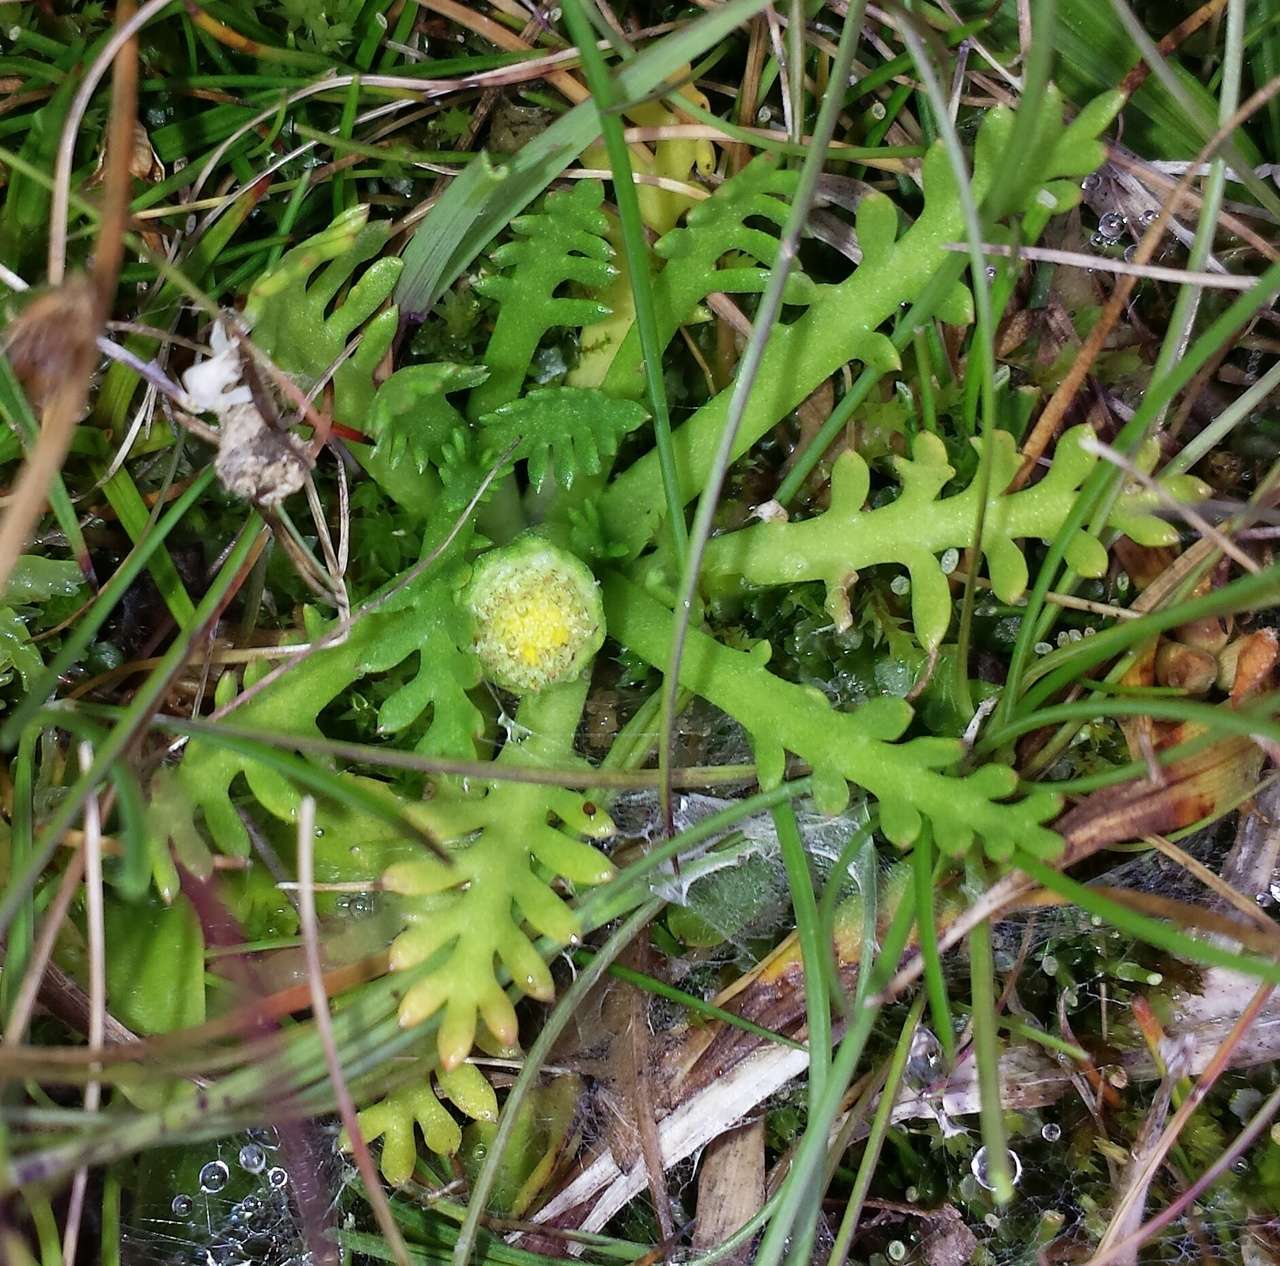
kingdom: Plantae
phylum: Tracheophyta
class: Magnoliopsida
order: Asterales
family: Asteraceae
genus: Cotula
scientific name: Cotula alpina
